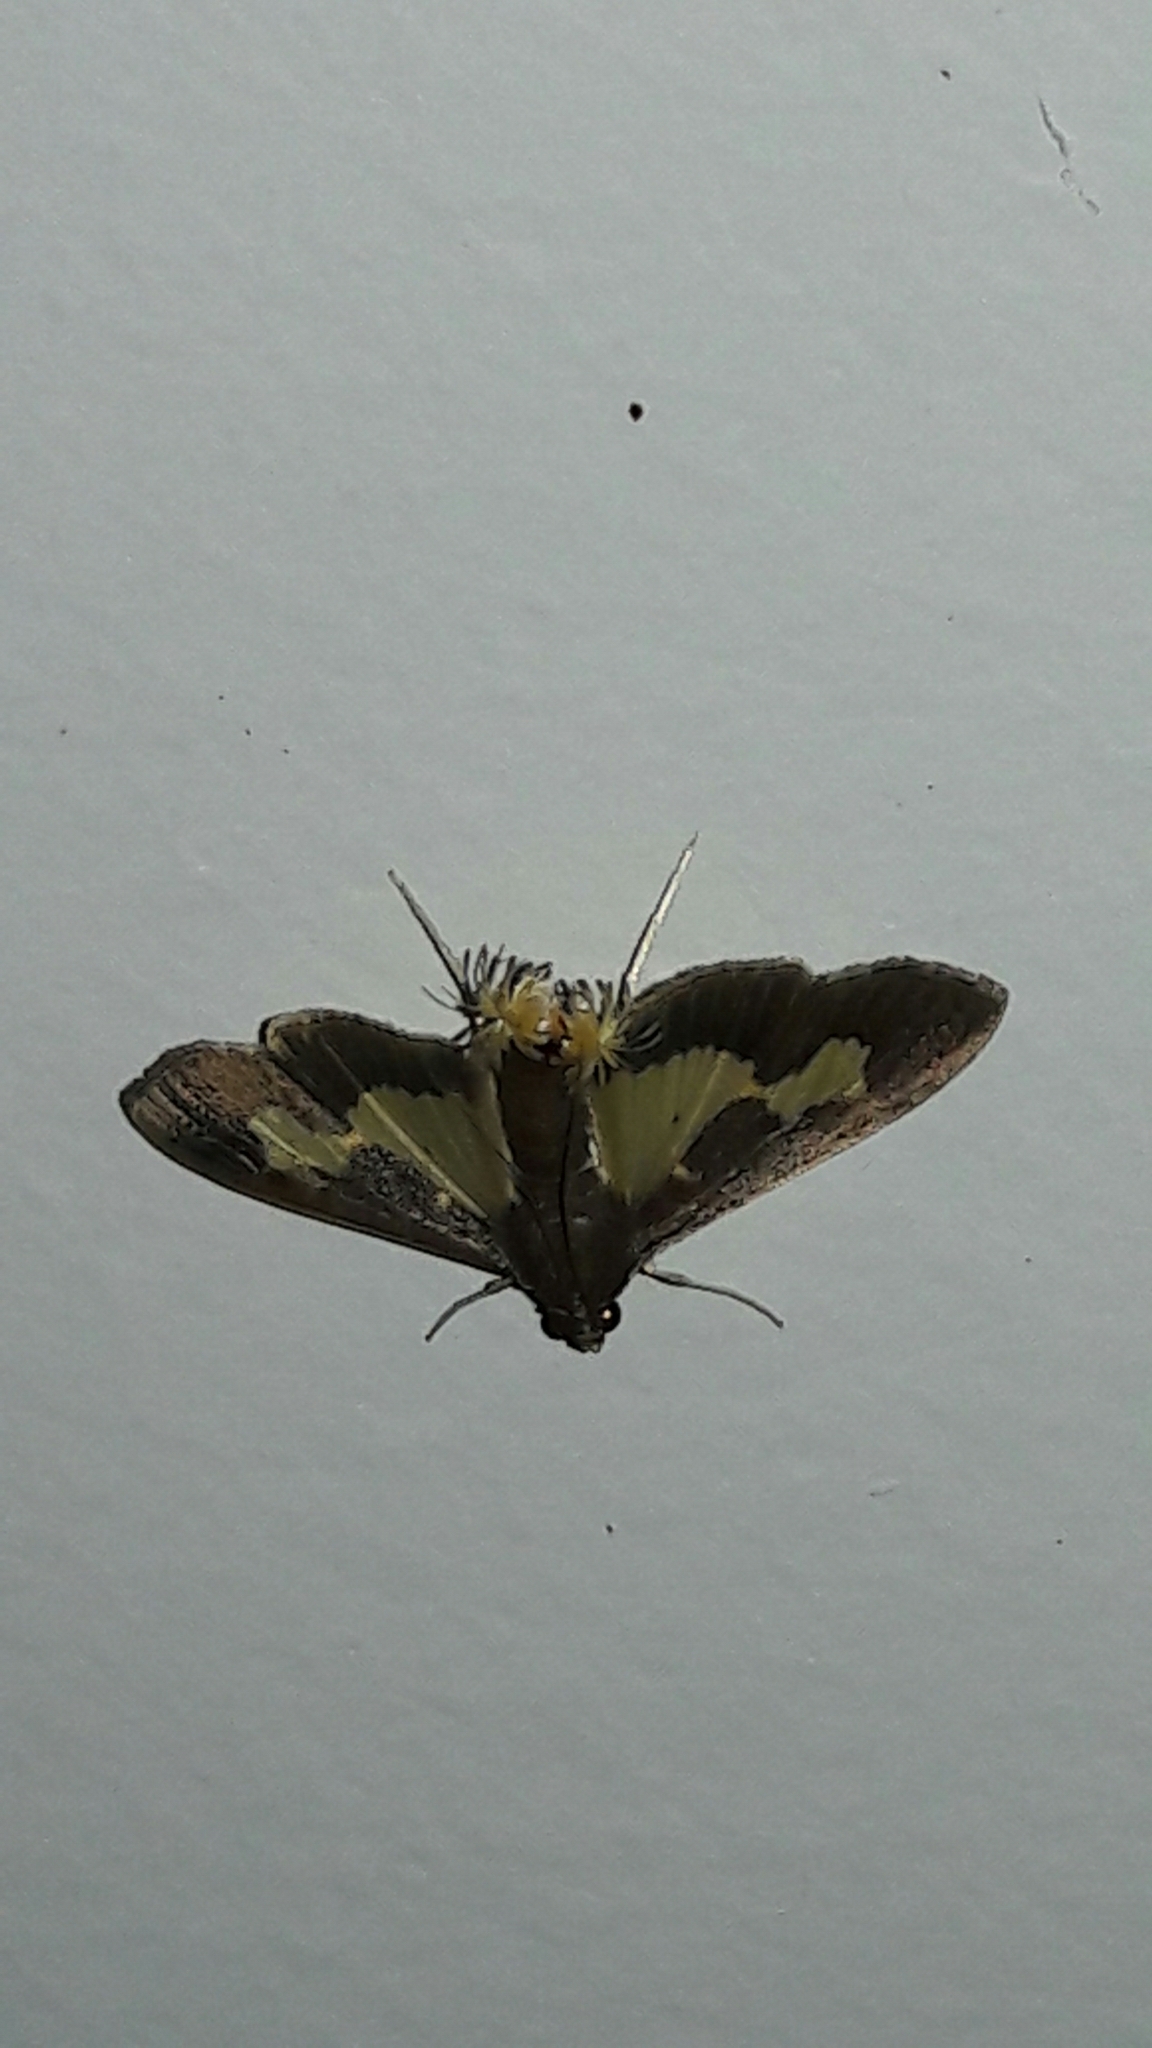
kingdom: Animalia
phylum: Arthropoda
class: Insecta
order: Lepidoptera
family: Crambidae
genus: Cryptographis
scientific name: Cryptographis nitidalis
